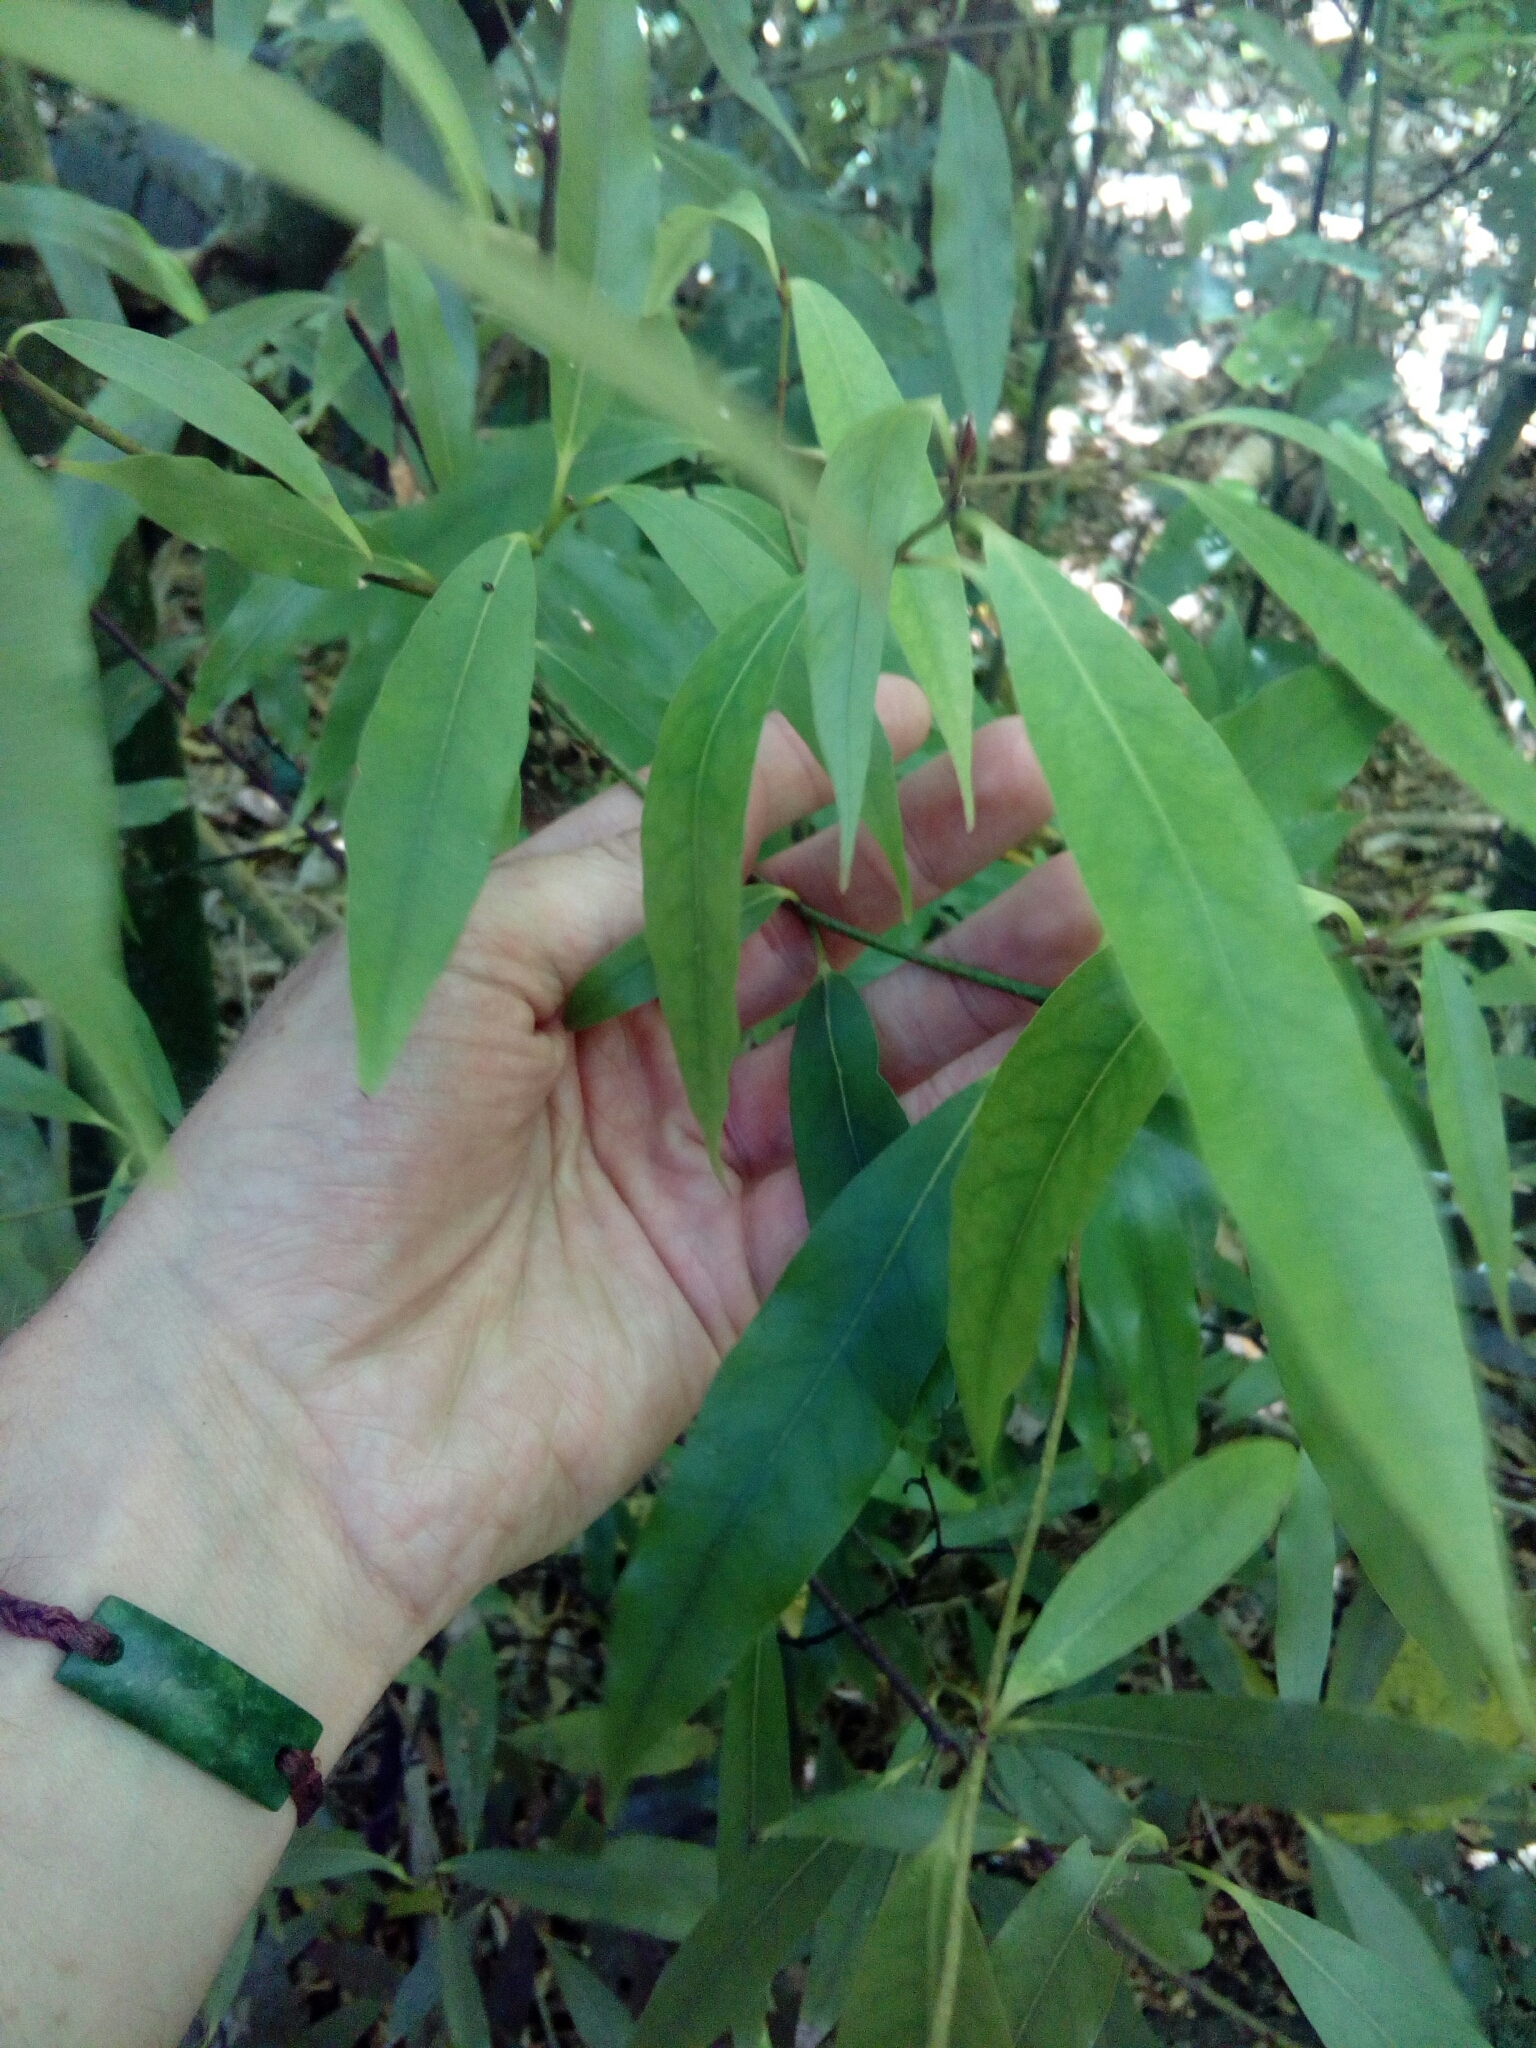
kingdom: Plantae
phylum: Tracheophyta
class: Magnoliopsida
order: Laurales
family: Lauraceae
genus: Beilschmiedia
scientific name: Beilschmiedia tawa
